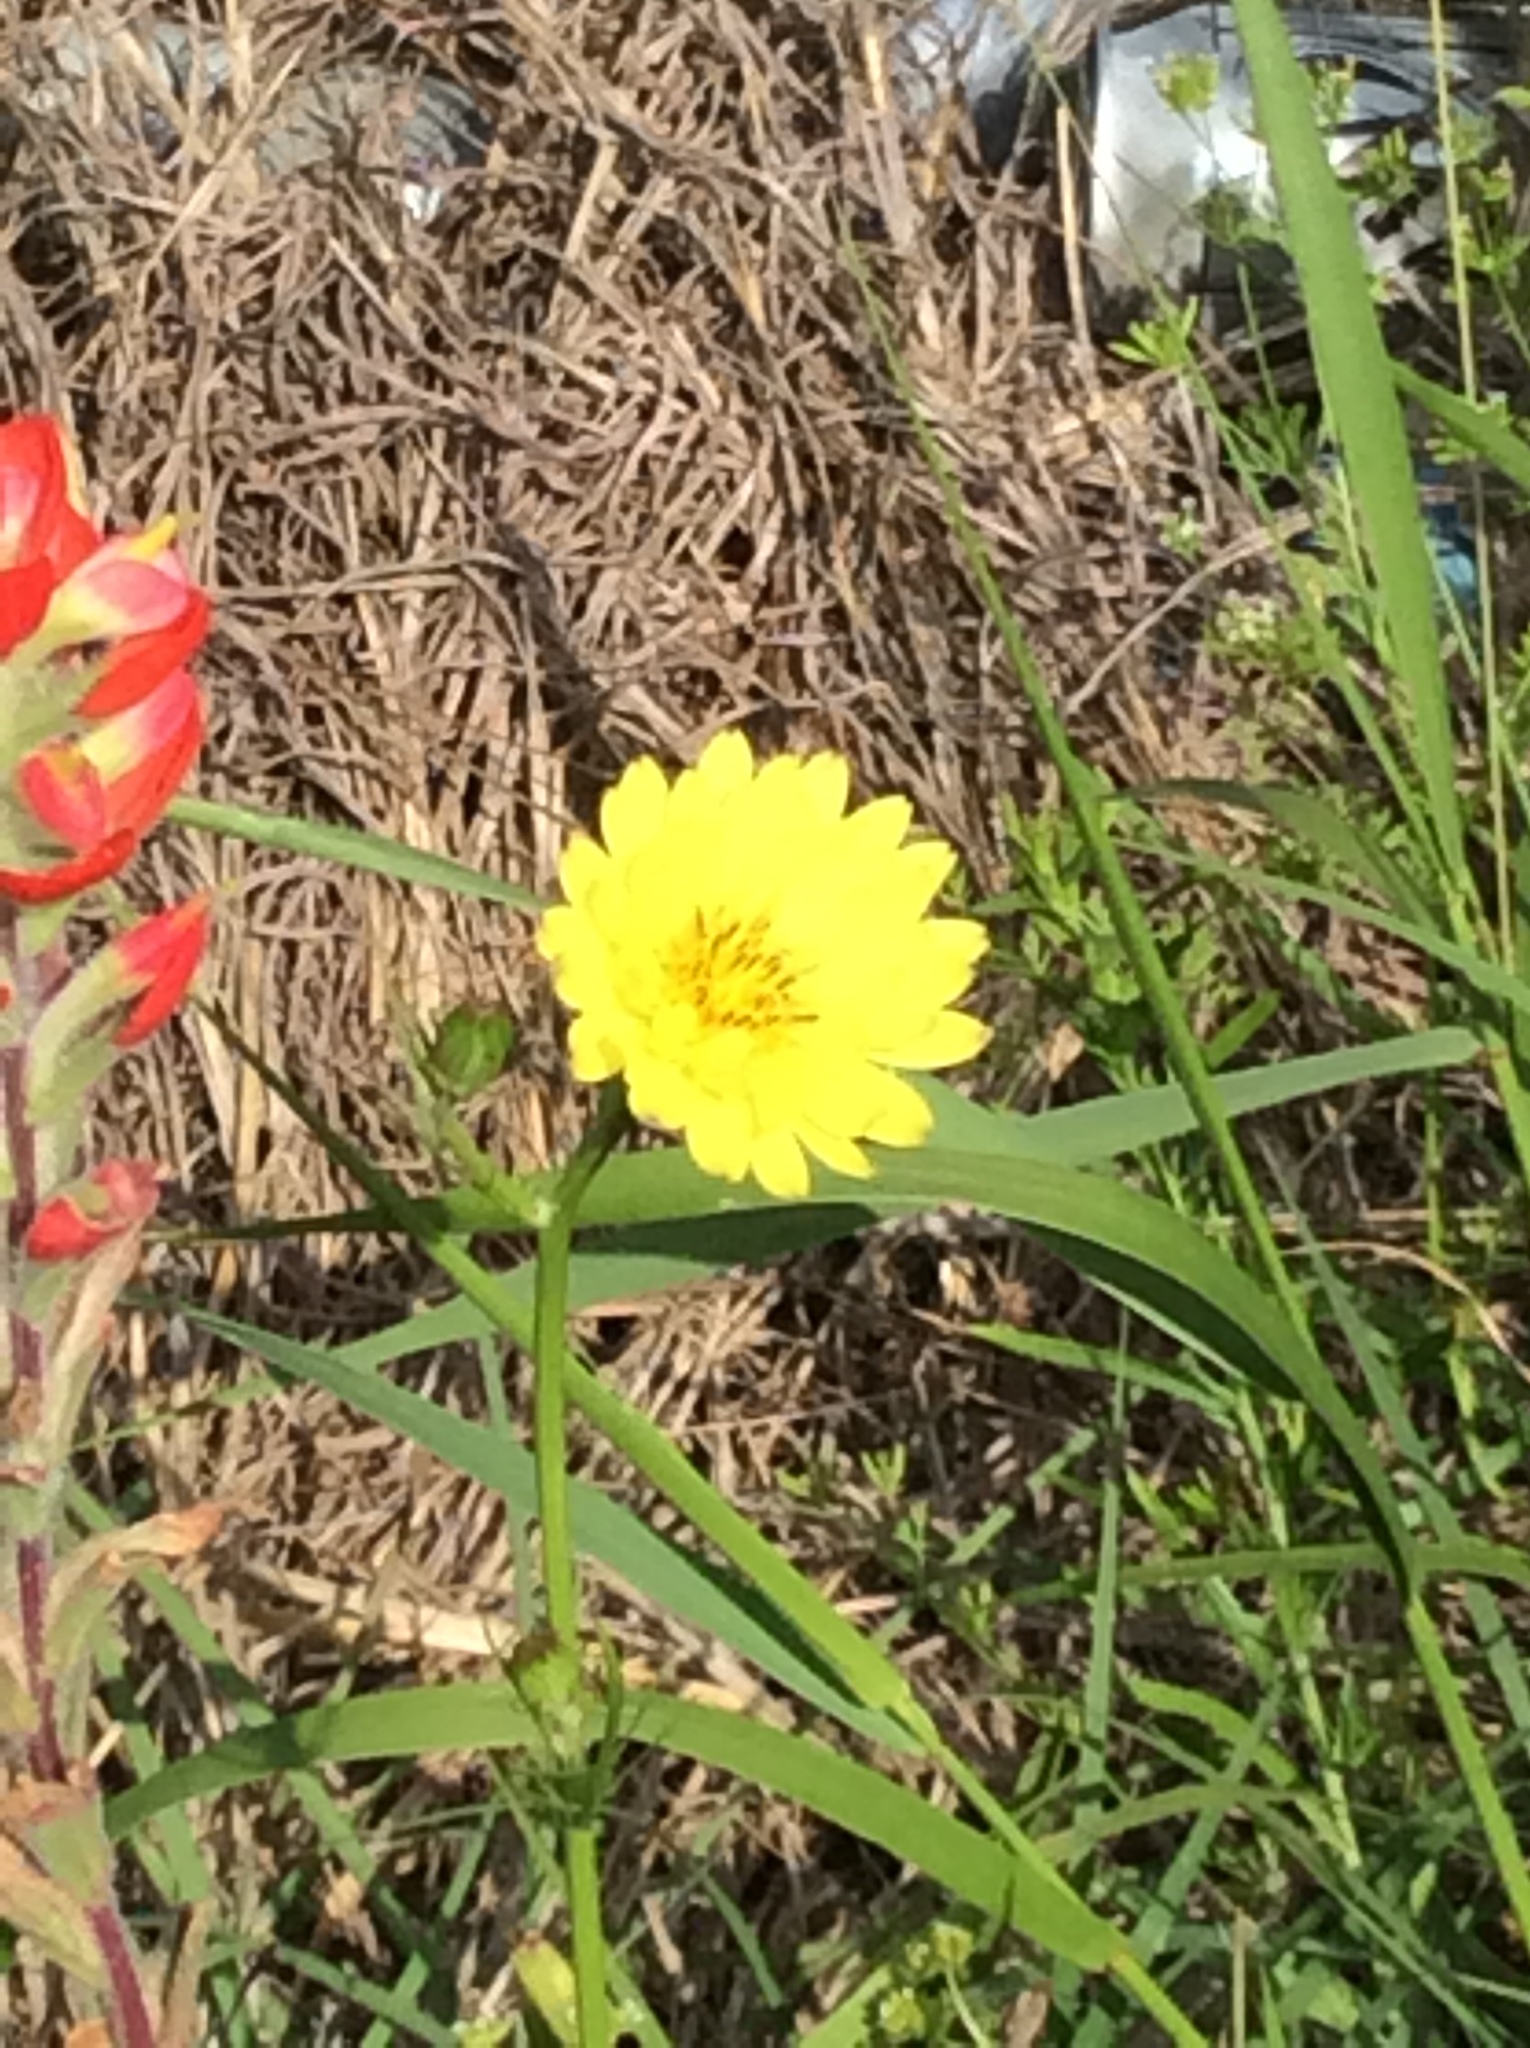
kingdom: Plantae
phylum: Tracheophyta
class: Magnoliopsida
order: Asterales
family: Asteraceae
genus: Pyrrhopappus
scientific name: Pyrrhopappus pauciflorus
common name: Texas false dandelion
